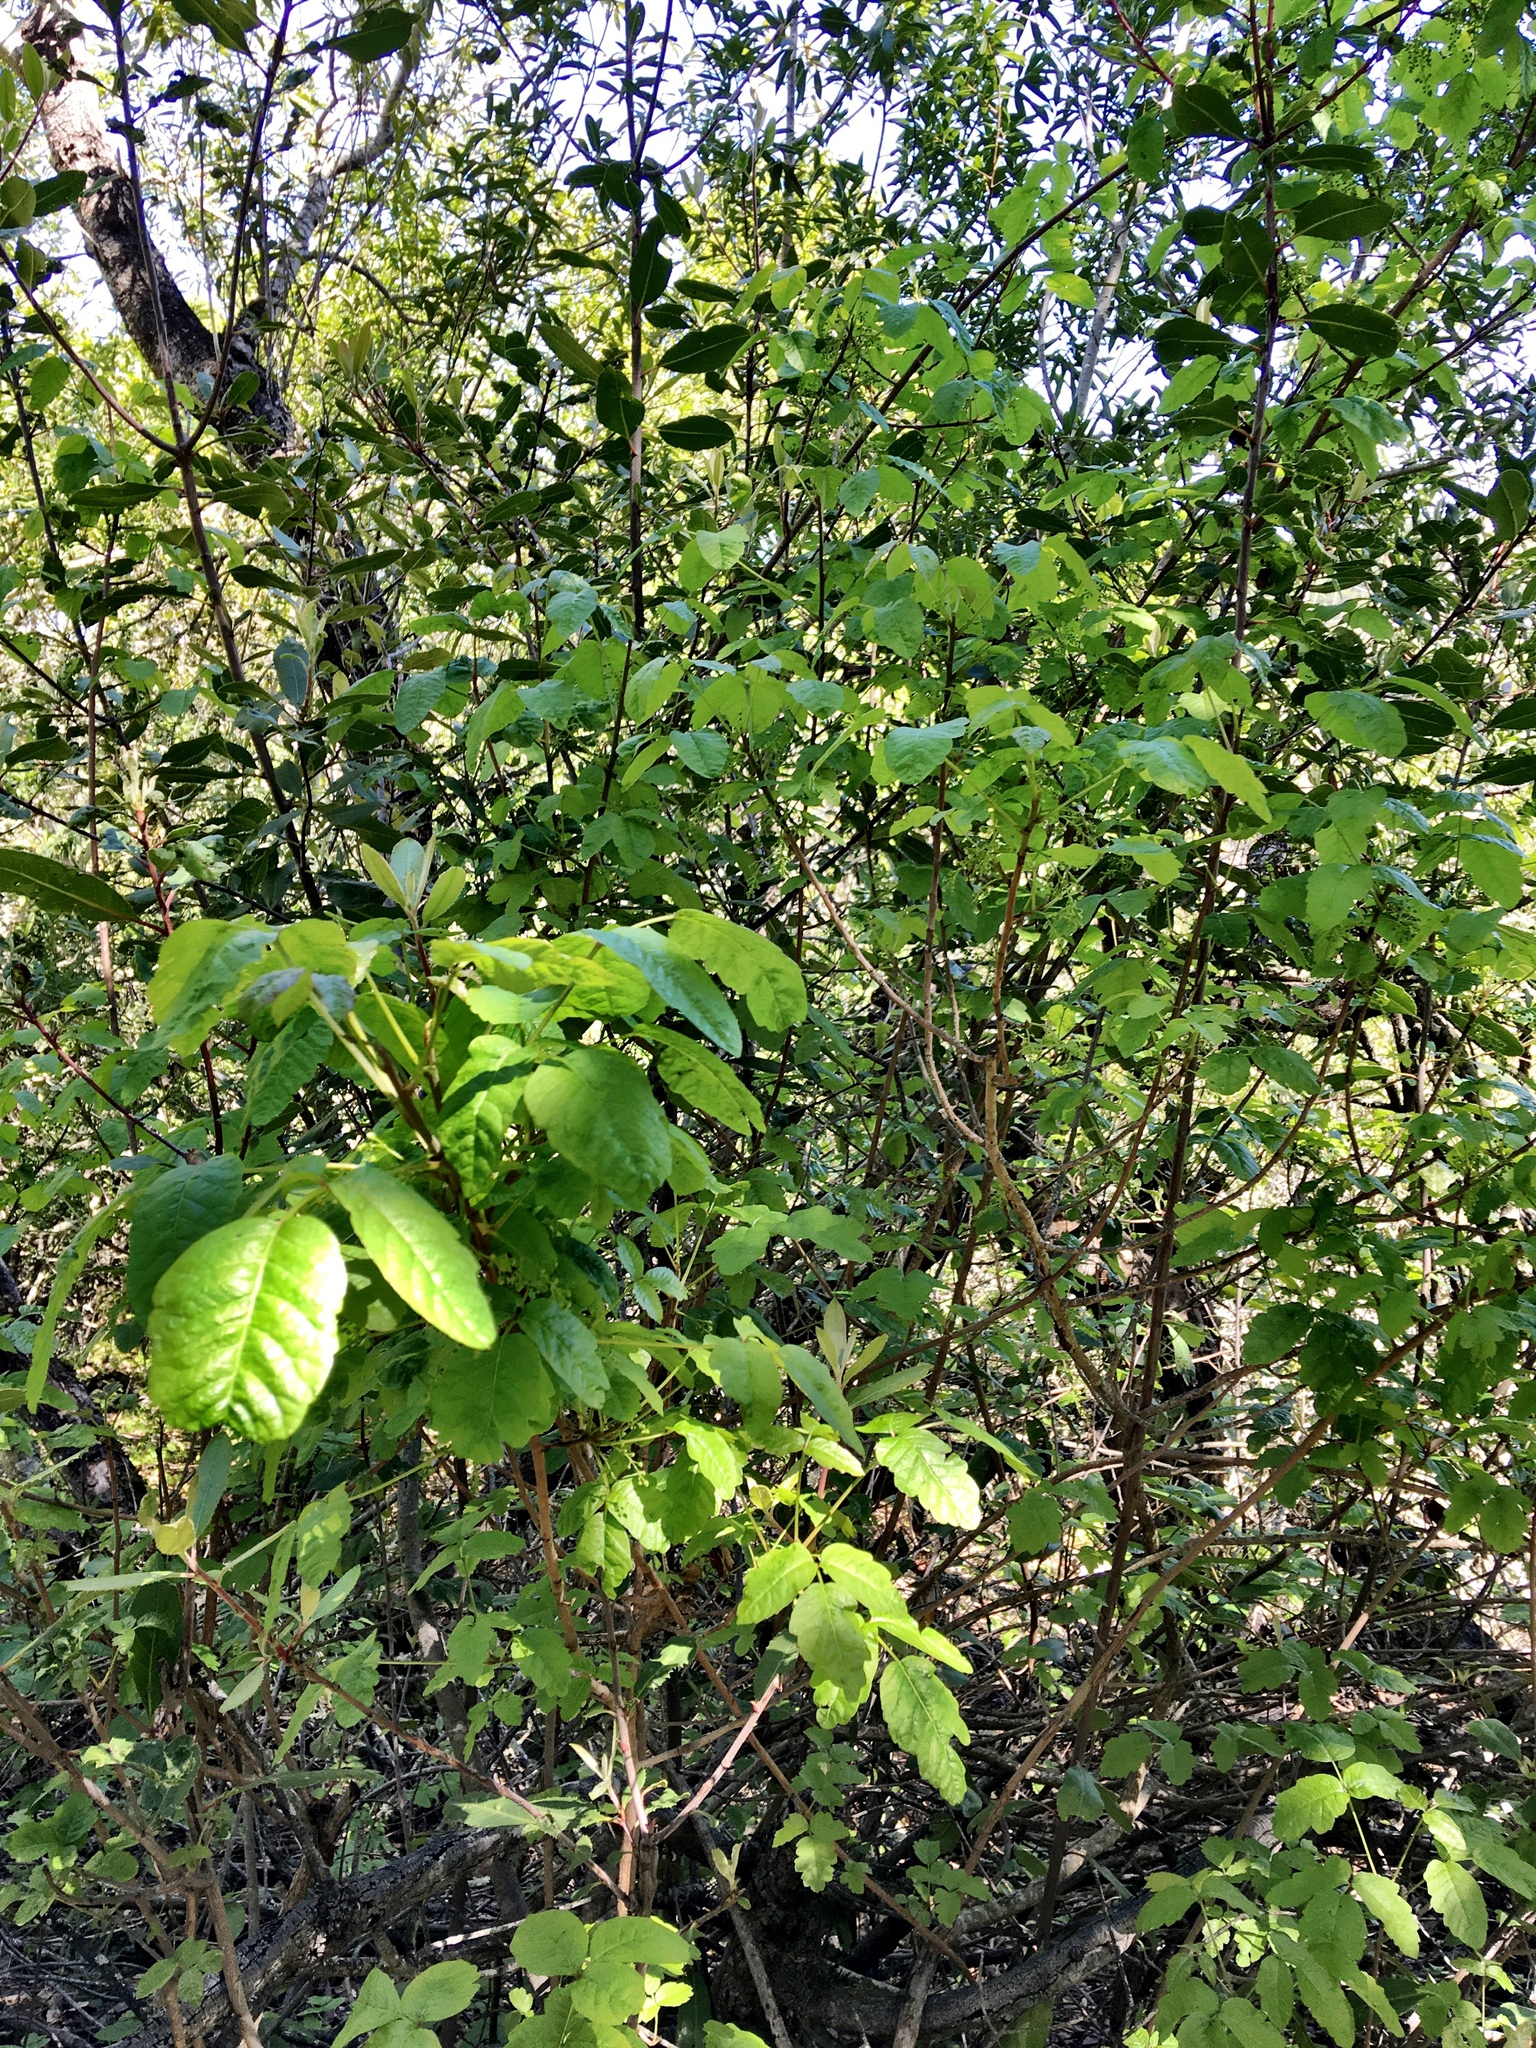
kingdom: Plantae
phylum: Tracheophyta
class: Magnoliopsida
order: Sapindales
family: Anacardiaceae
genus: Toxicodendron
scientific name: Toxicodendron diversilobum
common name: Pacific poison-oak
